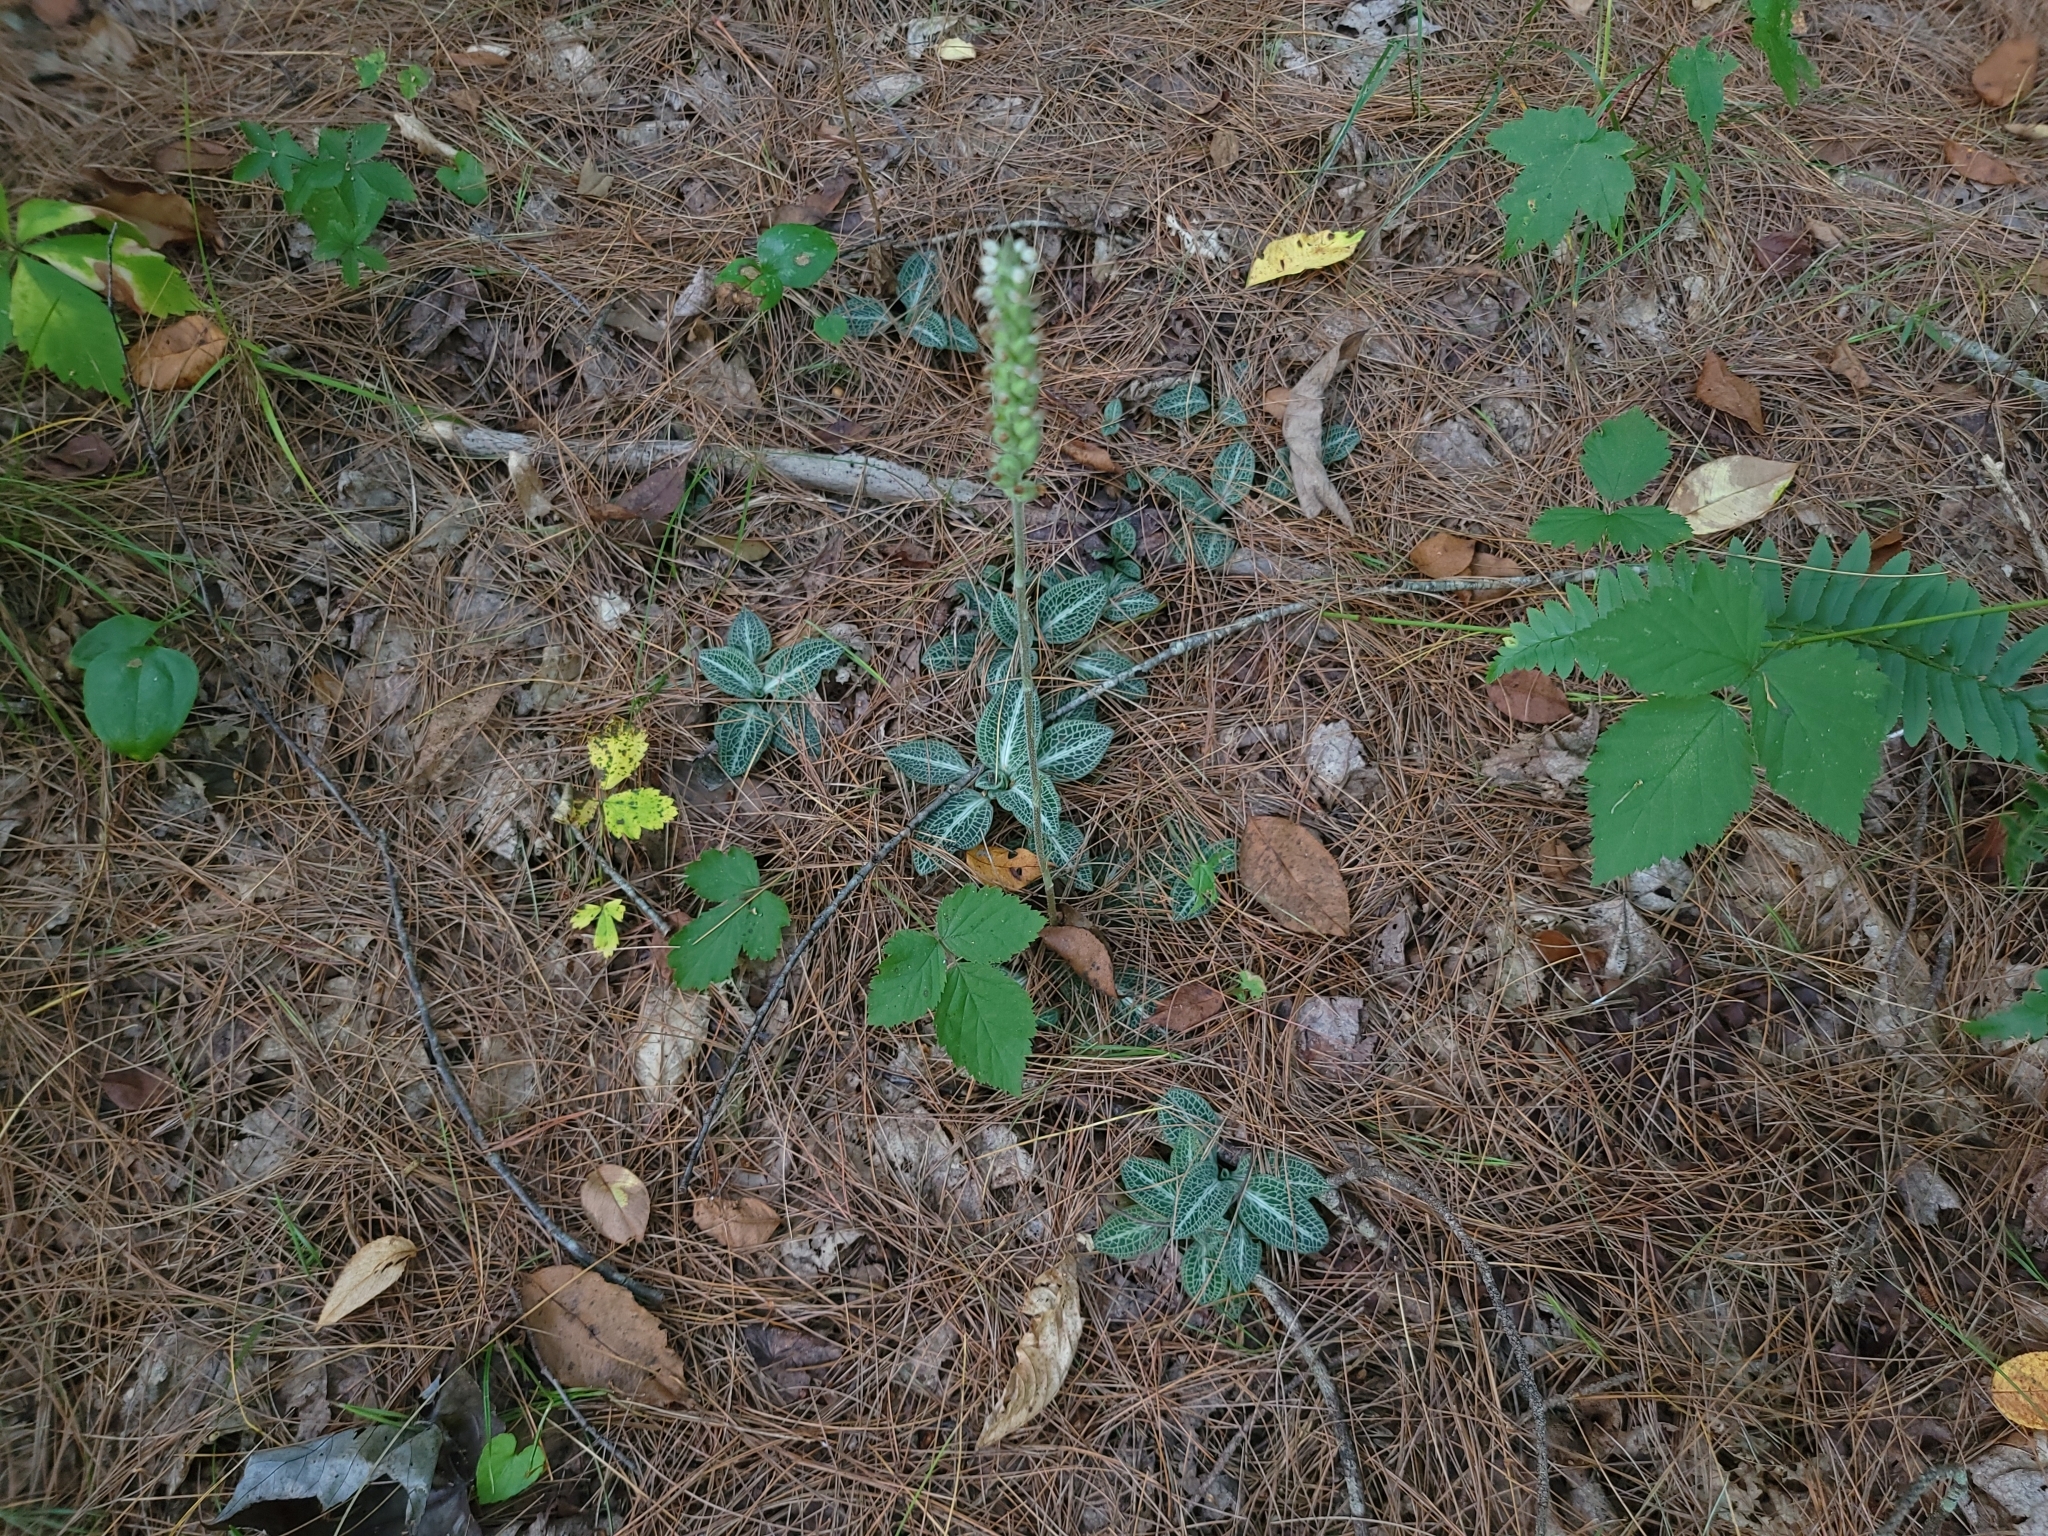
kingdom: Plantae
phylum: Tracheophyta
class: Liliopsida
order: Asparagales
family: Orchidaceae
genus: Goodyera
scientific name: Goodyera pubescens
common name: Downy rattlesnake-plantain
